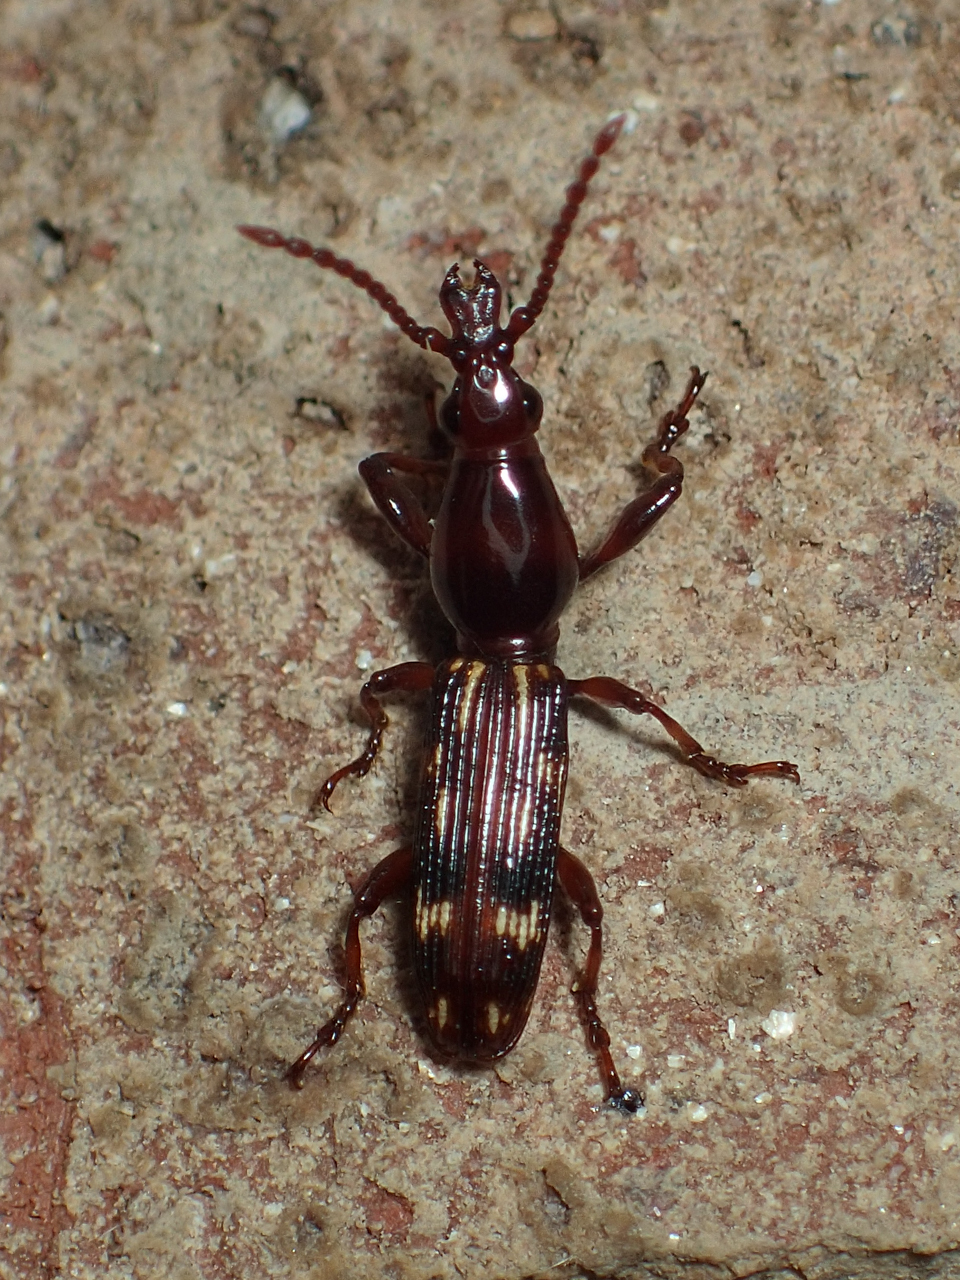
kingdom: Animalia
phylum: Arthropoda
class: Insecta
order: Coleoptera
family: Brentidae
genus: Arrenodes
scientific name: Arrenodes minutus
